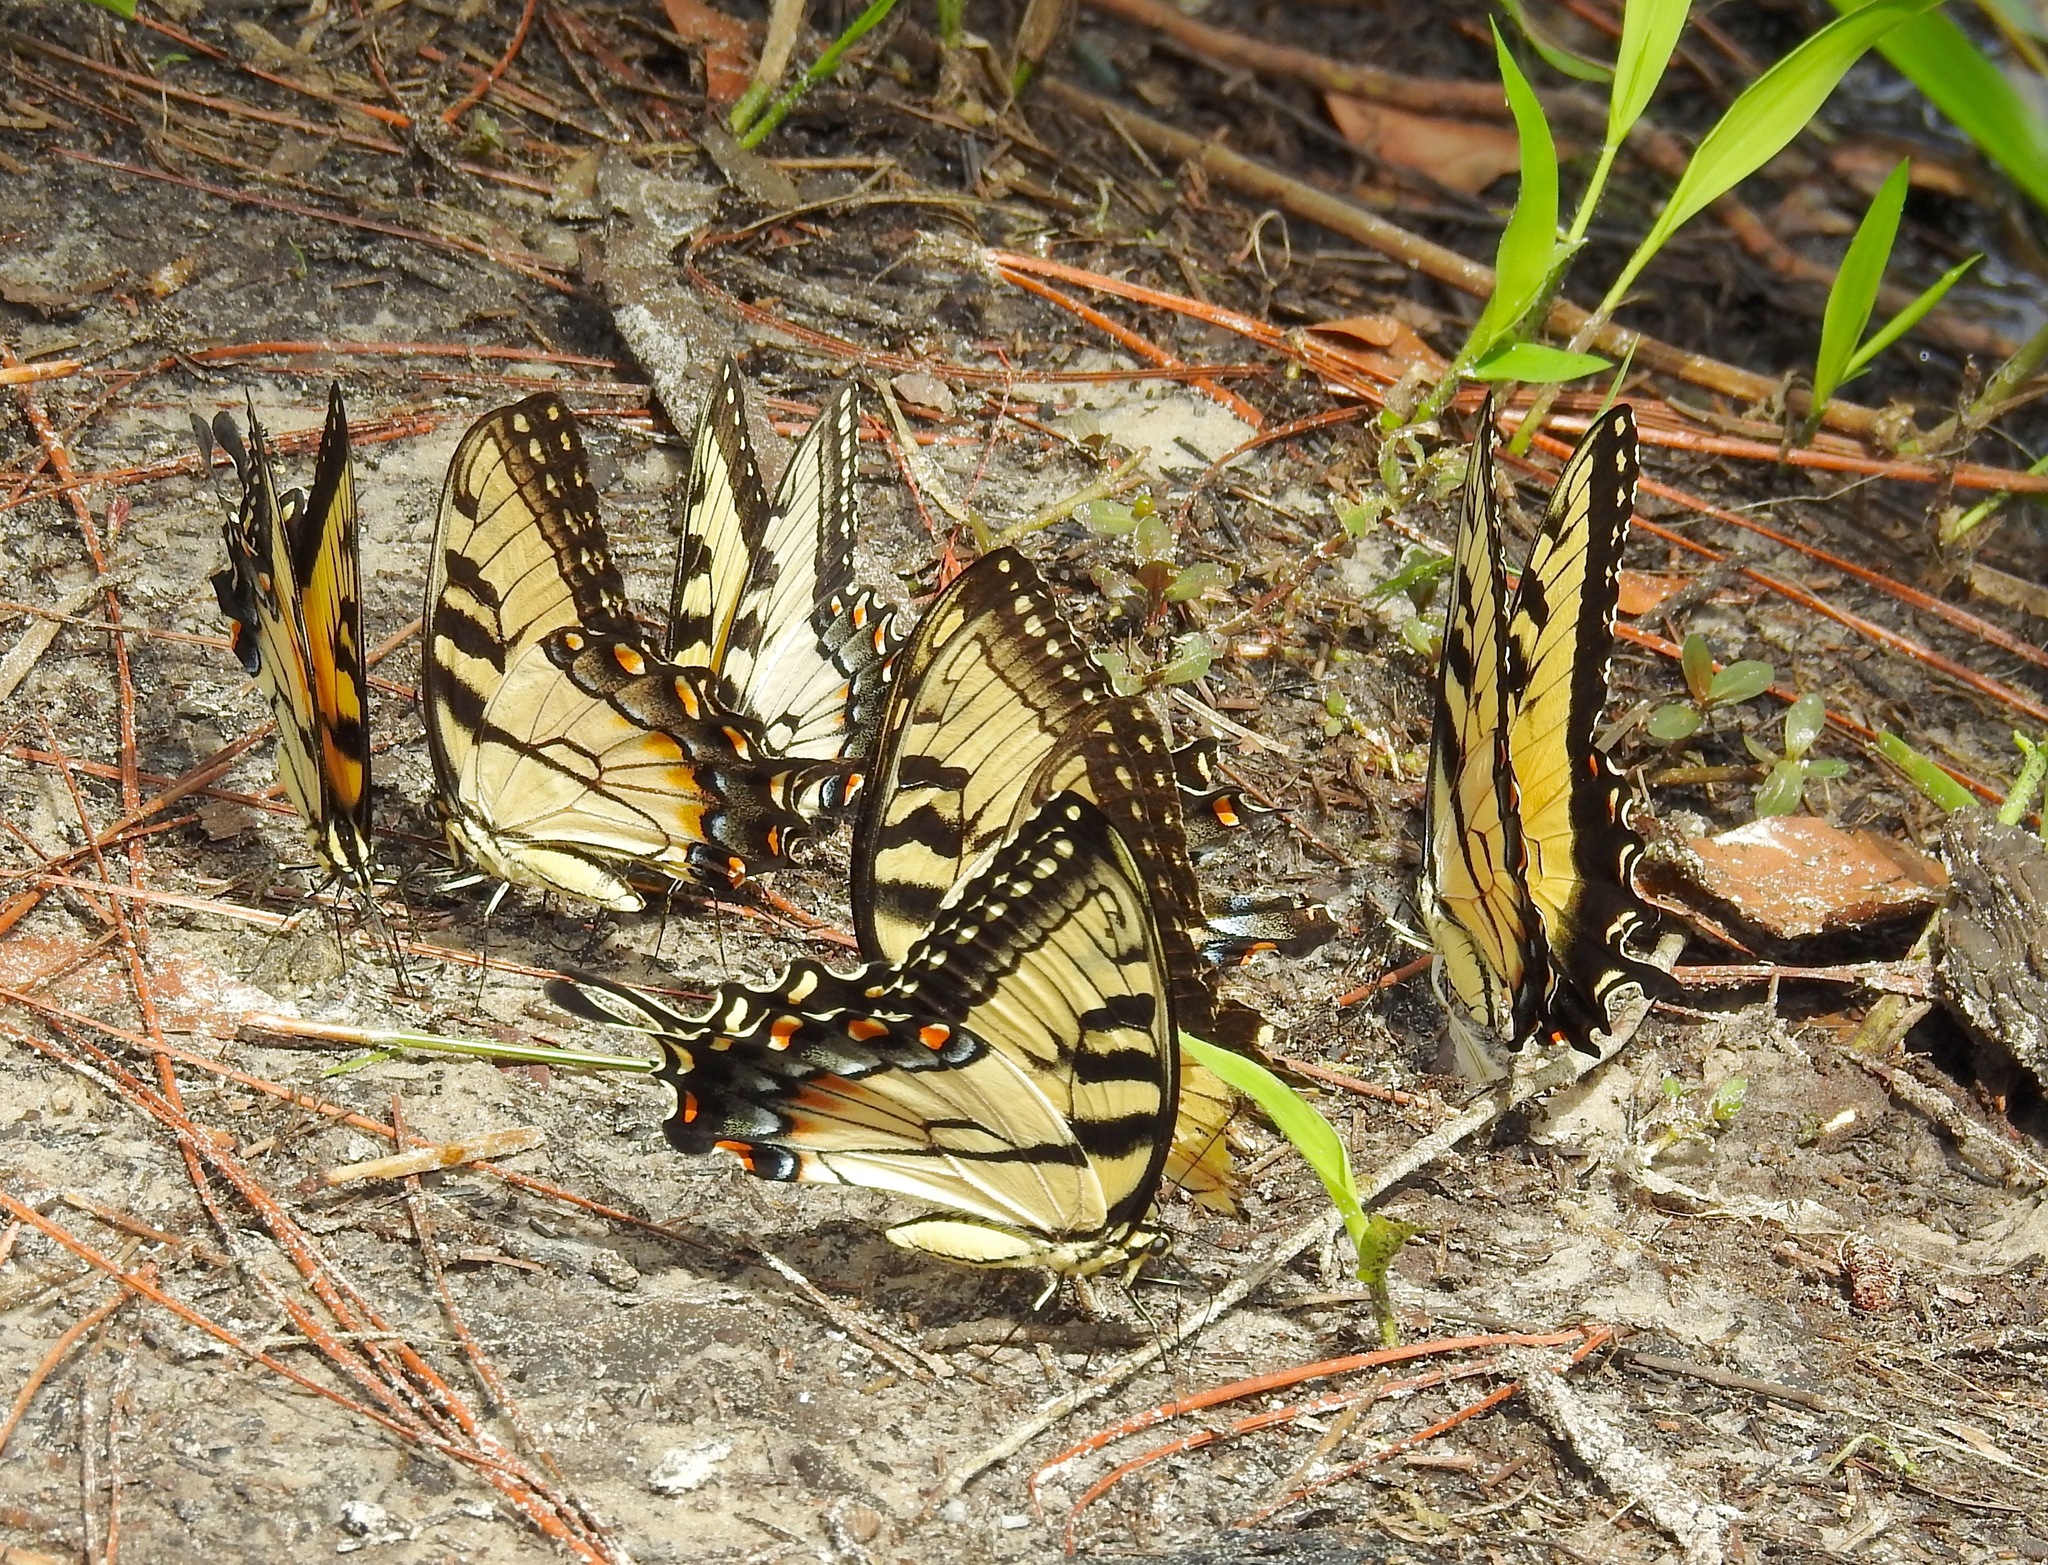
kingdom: Animalia
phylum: Arthropoda
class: Insecta
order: Lepidoptera
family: Papilionidae
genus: Papilio
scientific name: Papilio glaucus
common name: Tiger swallowtail
